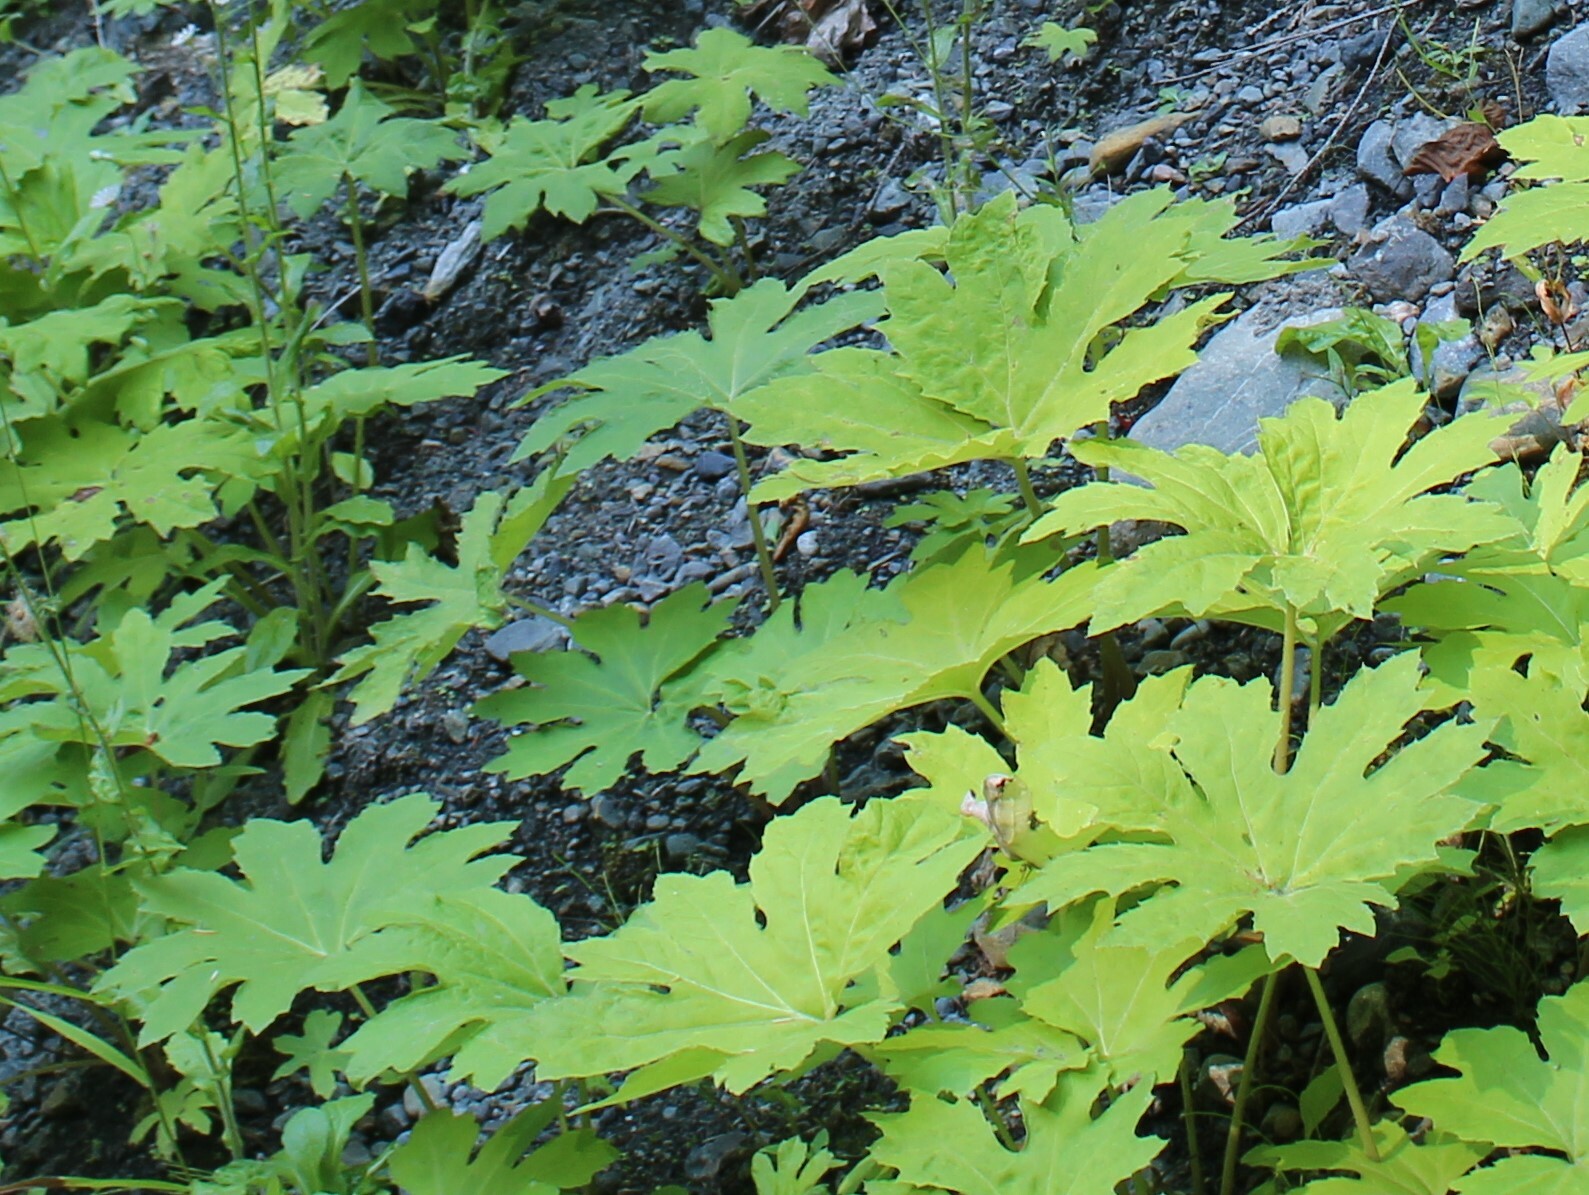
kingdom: Plantae
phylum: Tracheophyta
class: Magnoliopsida
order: Asterales
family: Asteraceae
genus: Petasites
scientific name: Petasites frigidus
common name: Arctic butterbur
